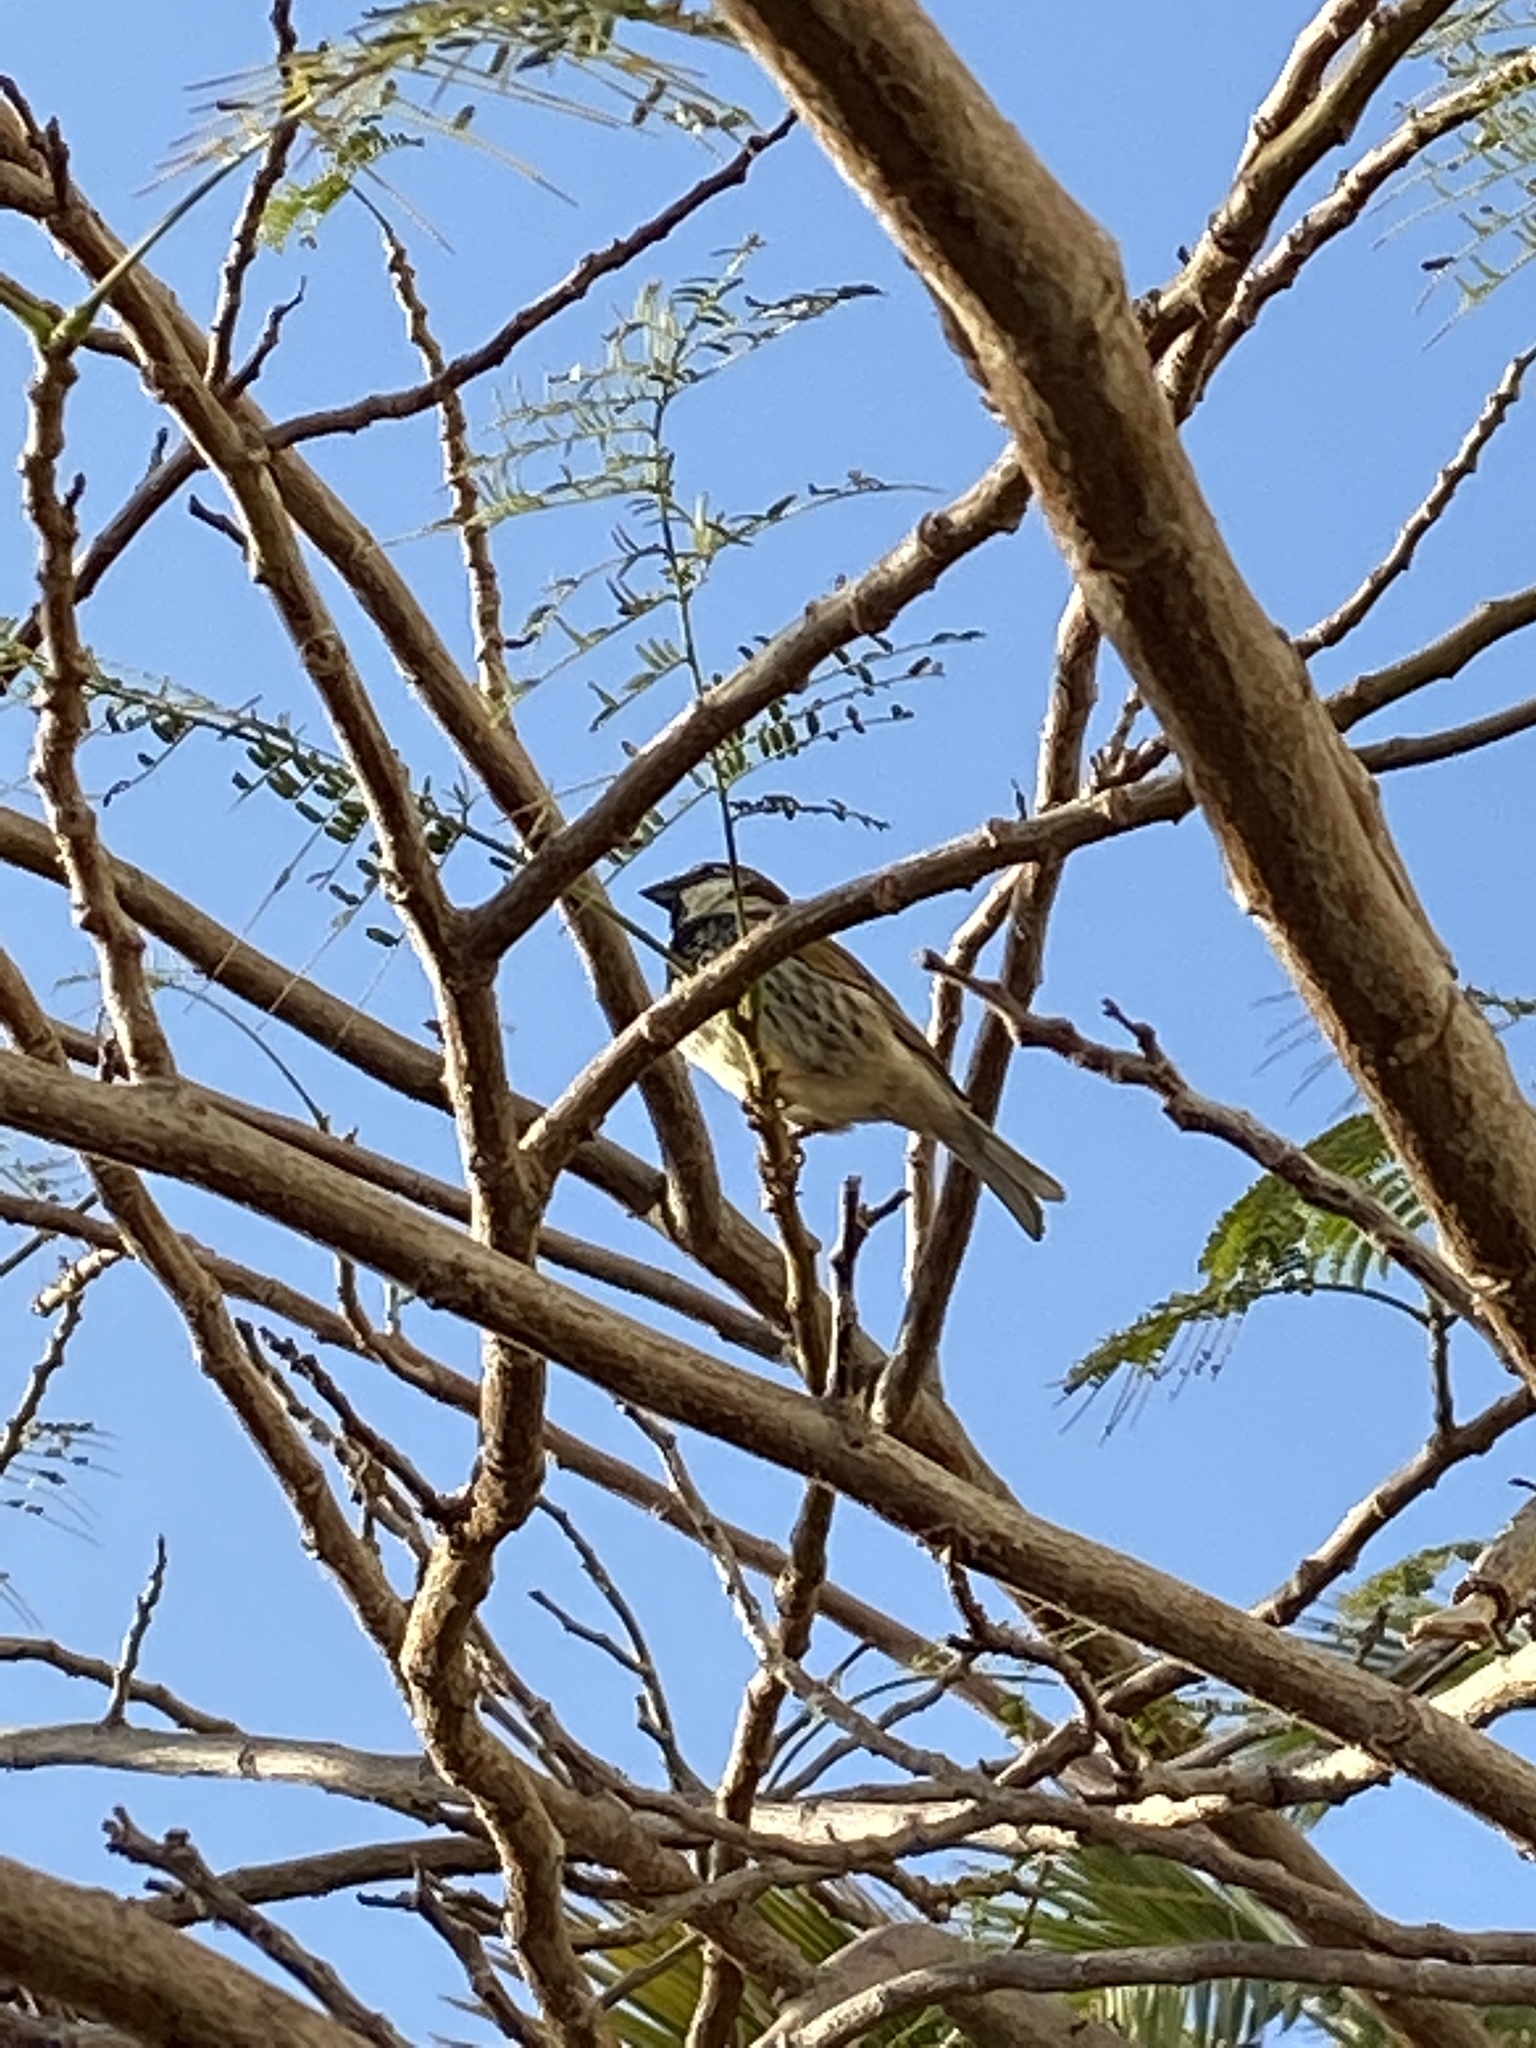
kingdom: Animalia
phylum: Chordata
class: Aves
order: Passeriformes
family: Passeridae
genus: Passer
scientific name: Passer hispaniolensis
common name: Spanish sparrow
